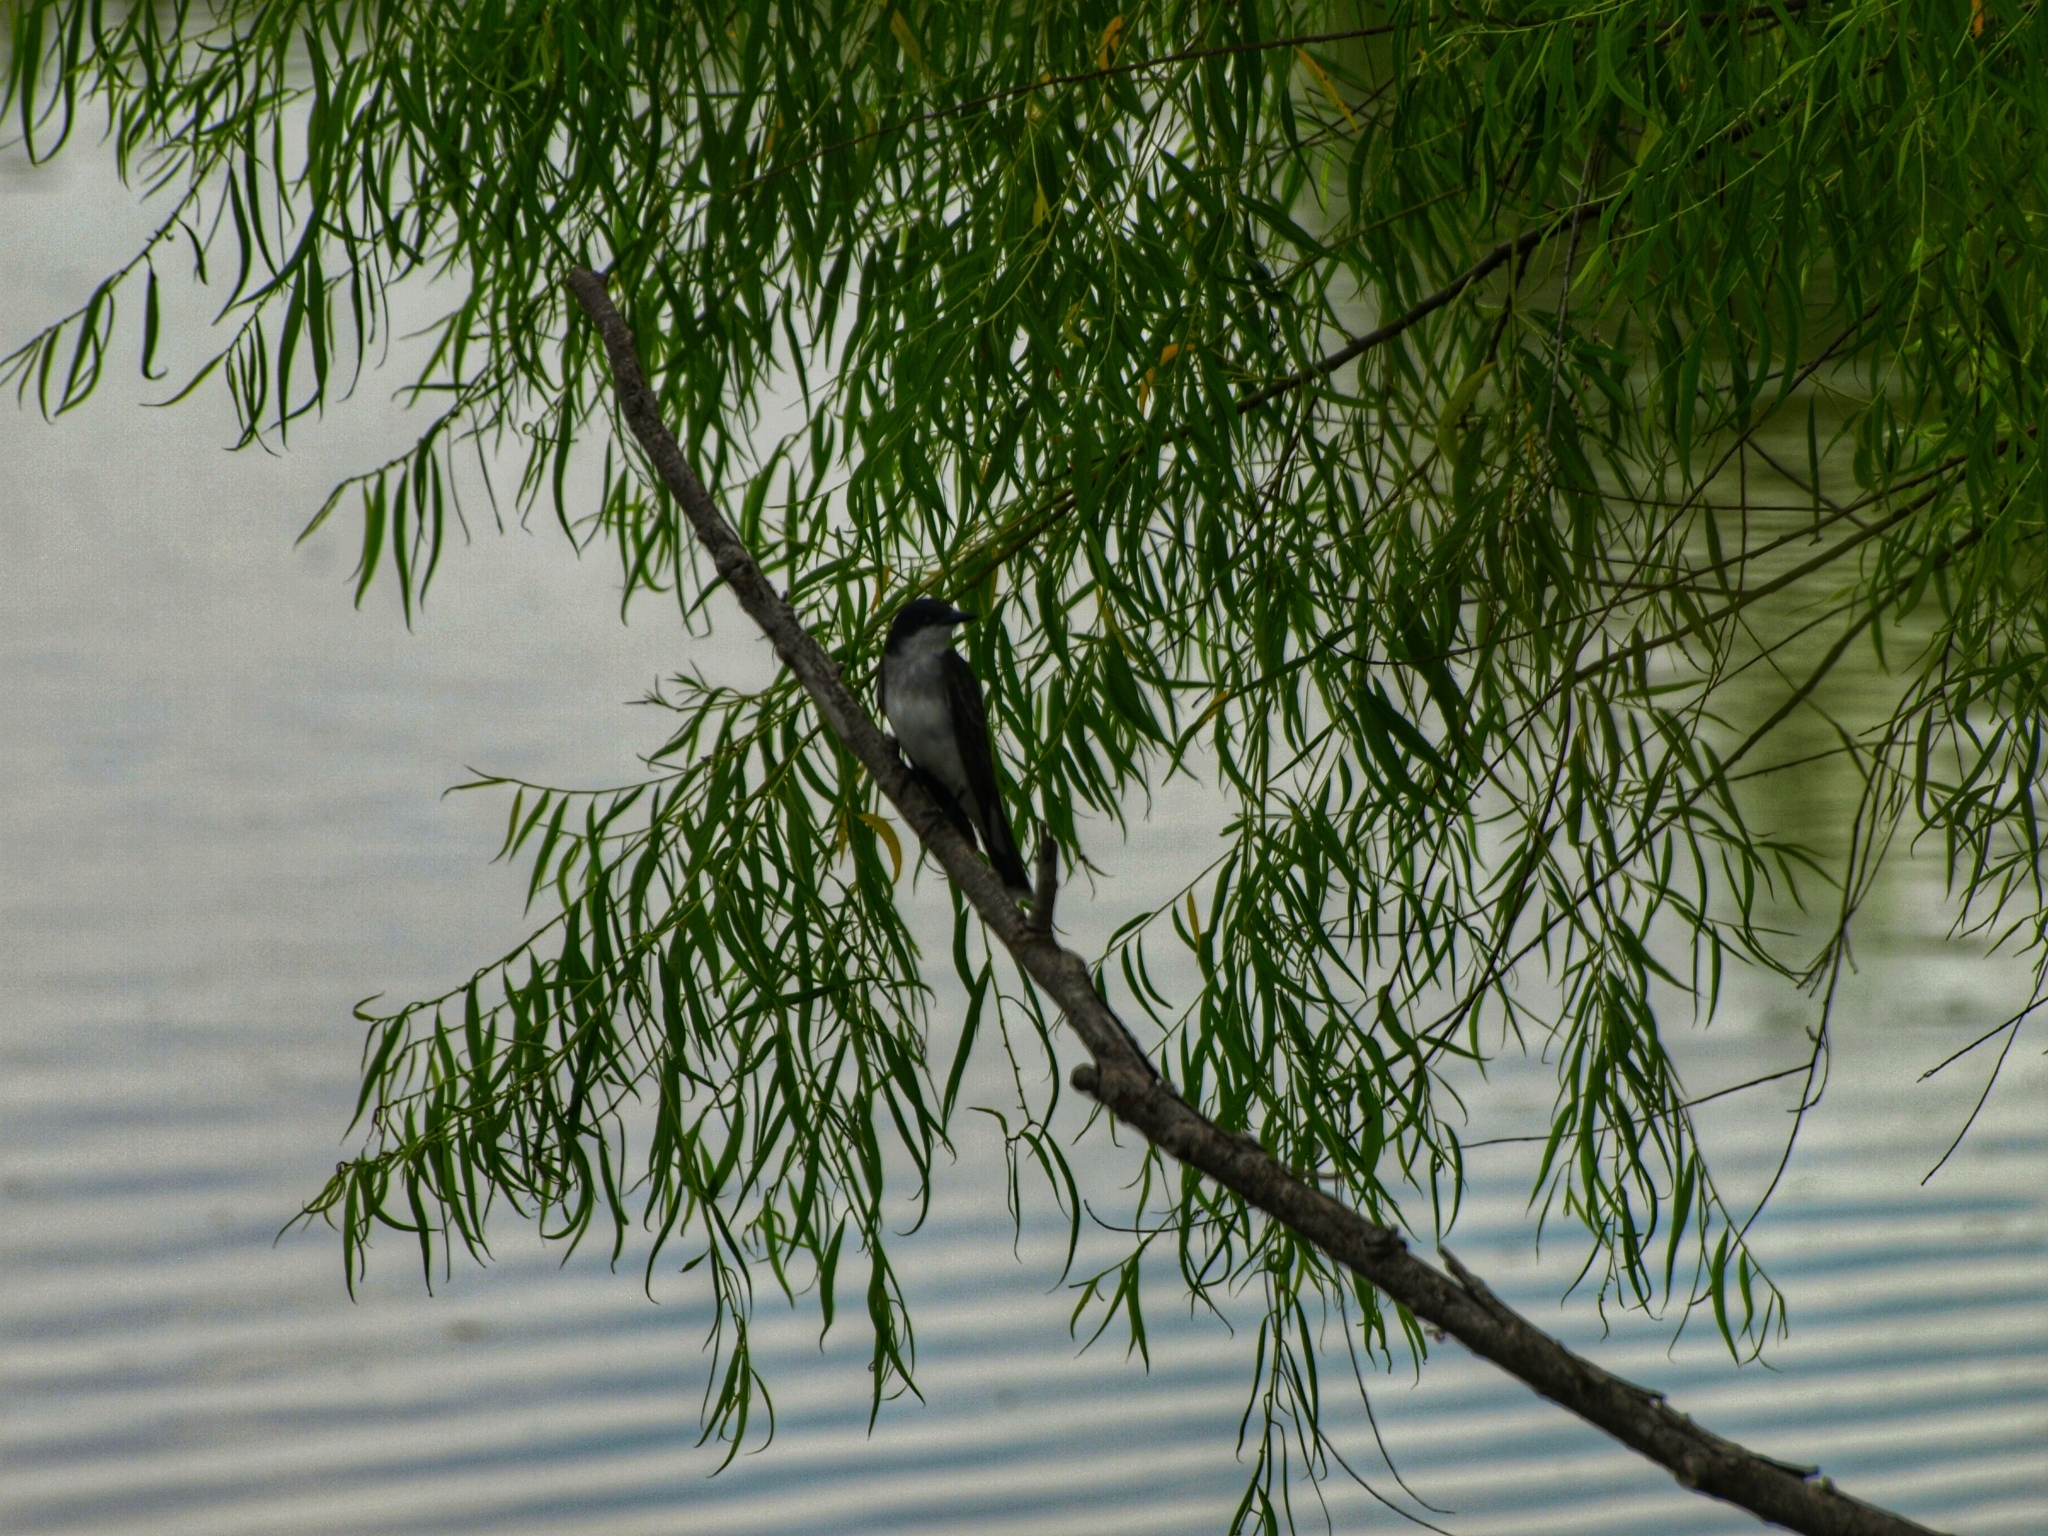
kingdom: Animalia
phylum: Chordata
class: Aves
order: Passeriformes
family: Tyrannidae
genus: Tyrannus
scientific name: Tyrannus tyrannus
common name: Eastern kingbird
